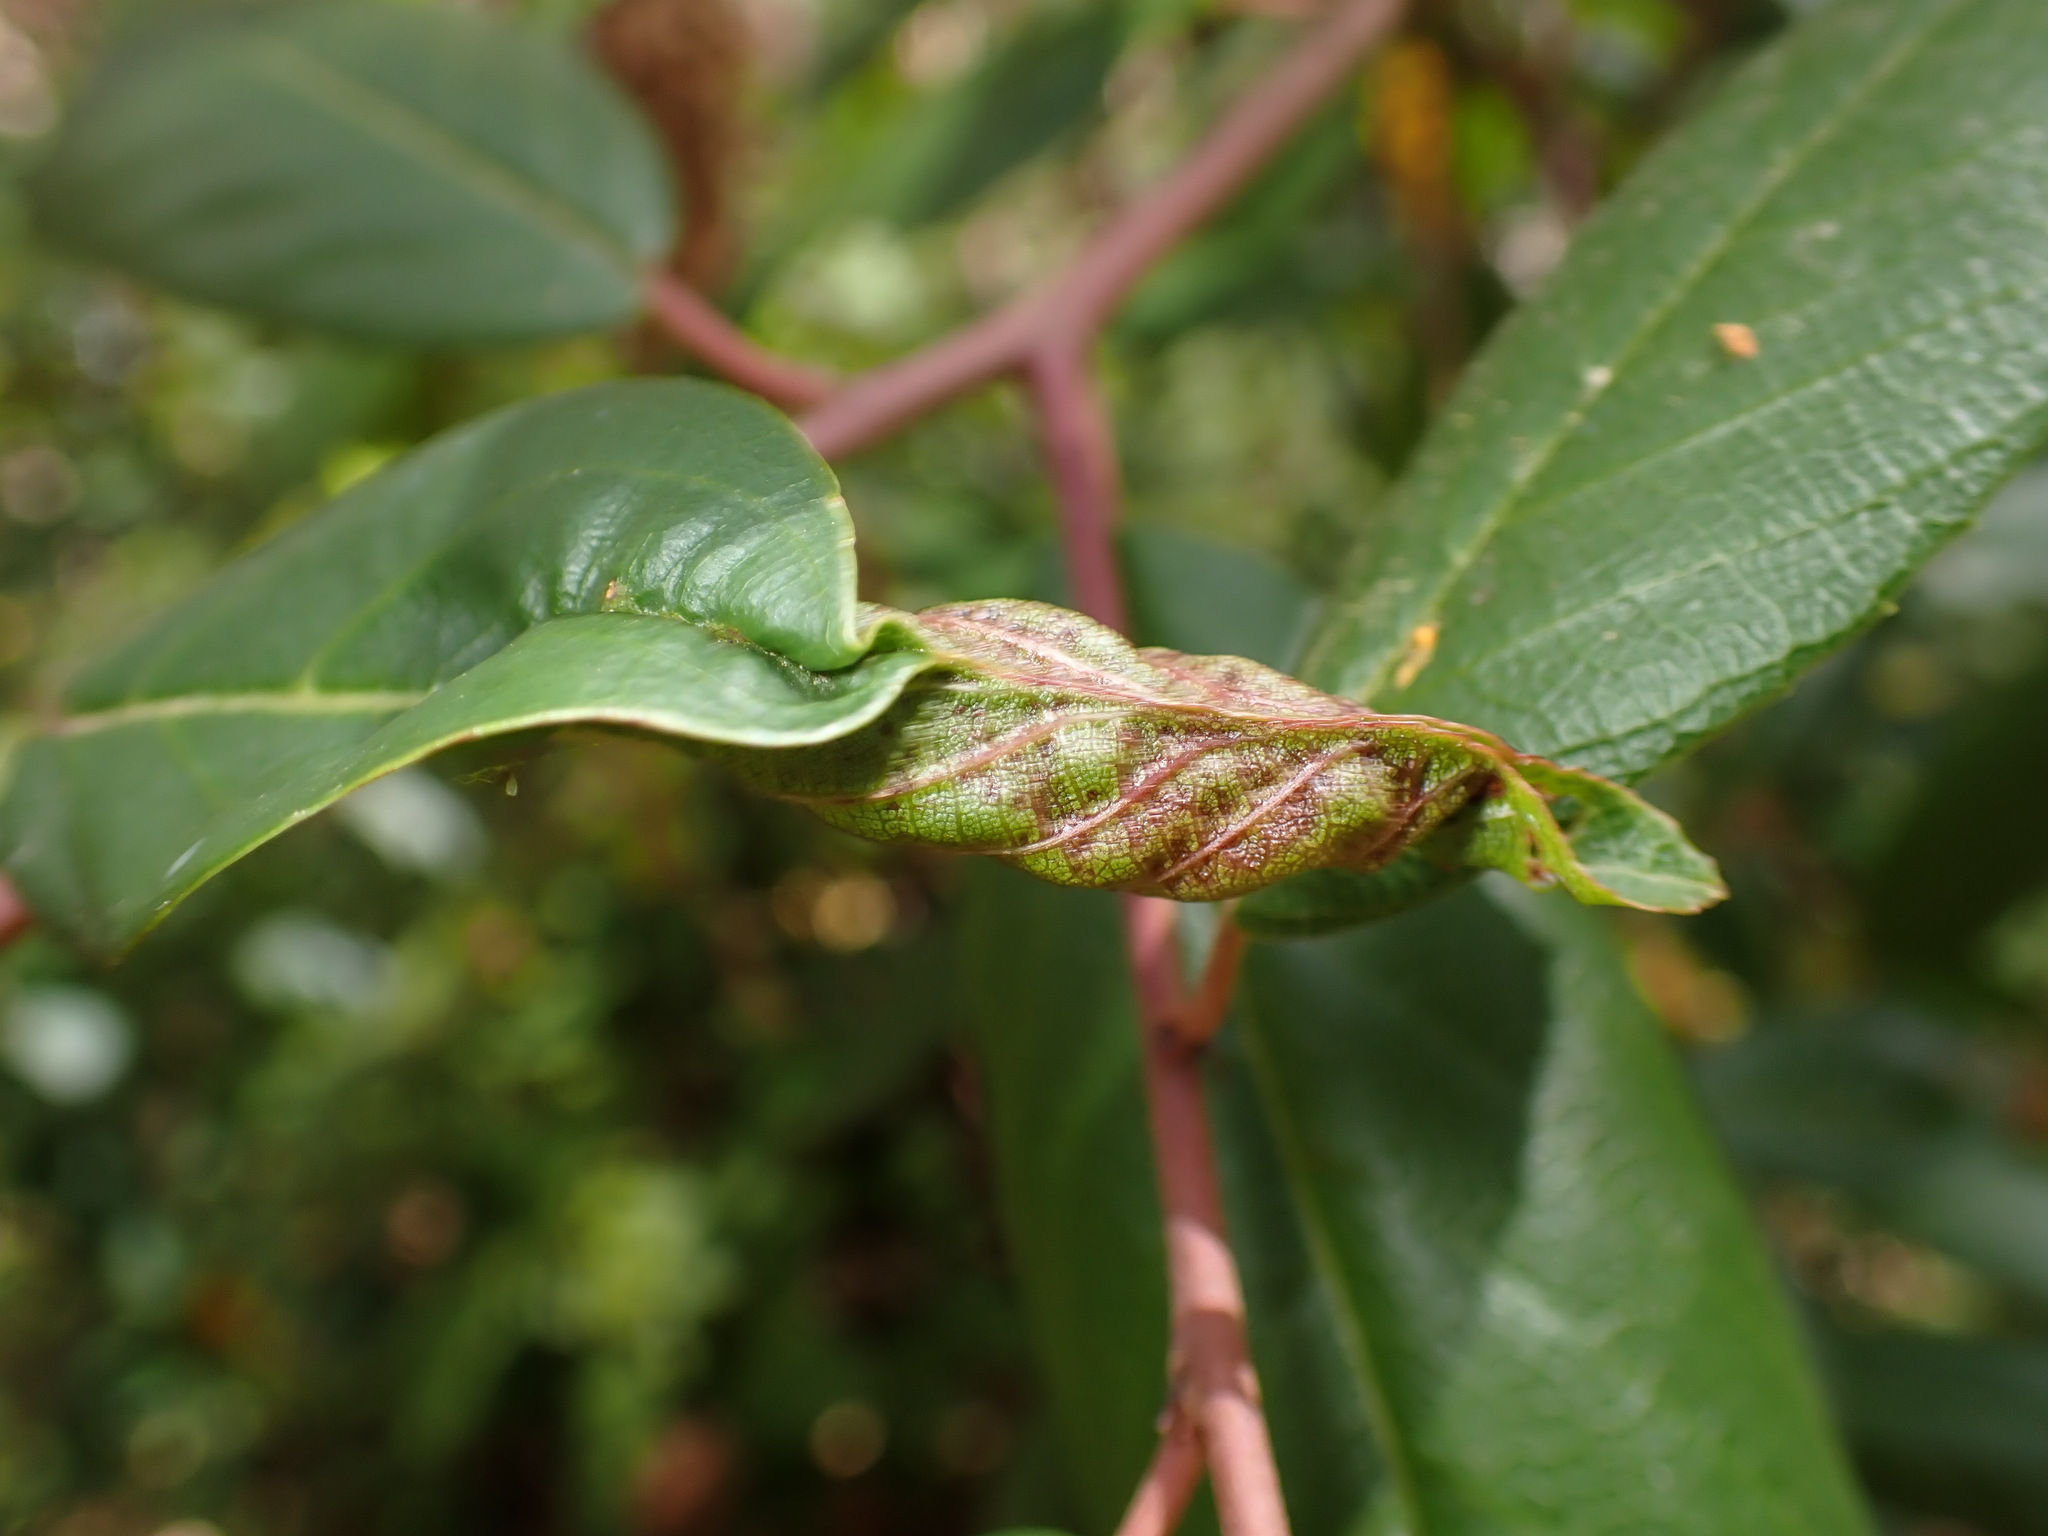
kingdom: Animalia
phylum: Arthropoda
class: Insecta
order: Lepidoptera
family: Cosmopterigidae
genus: Sorhagenia
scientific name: Sorhagenia nimbosus
